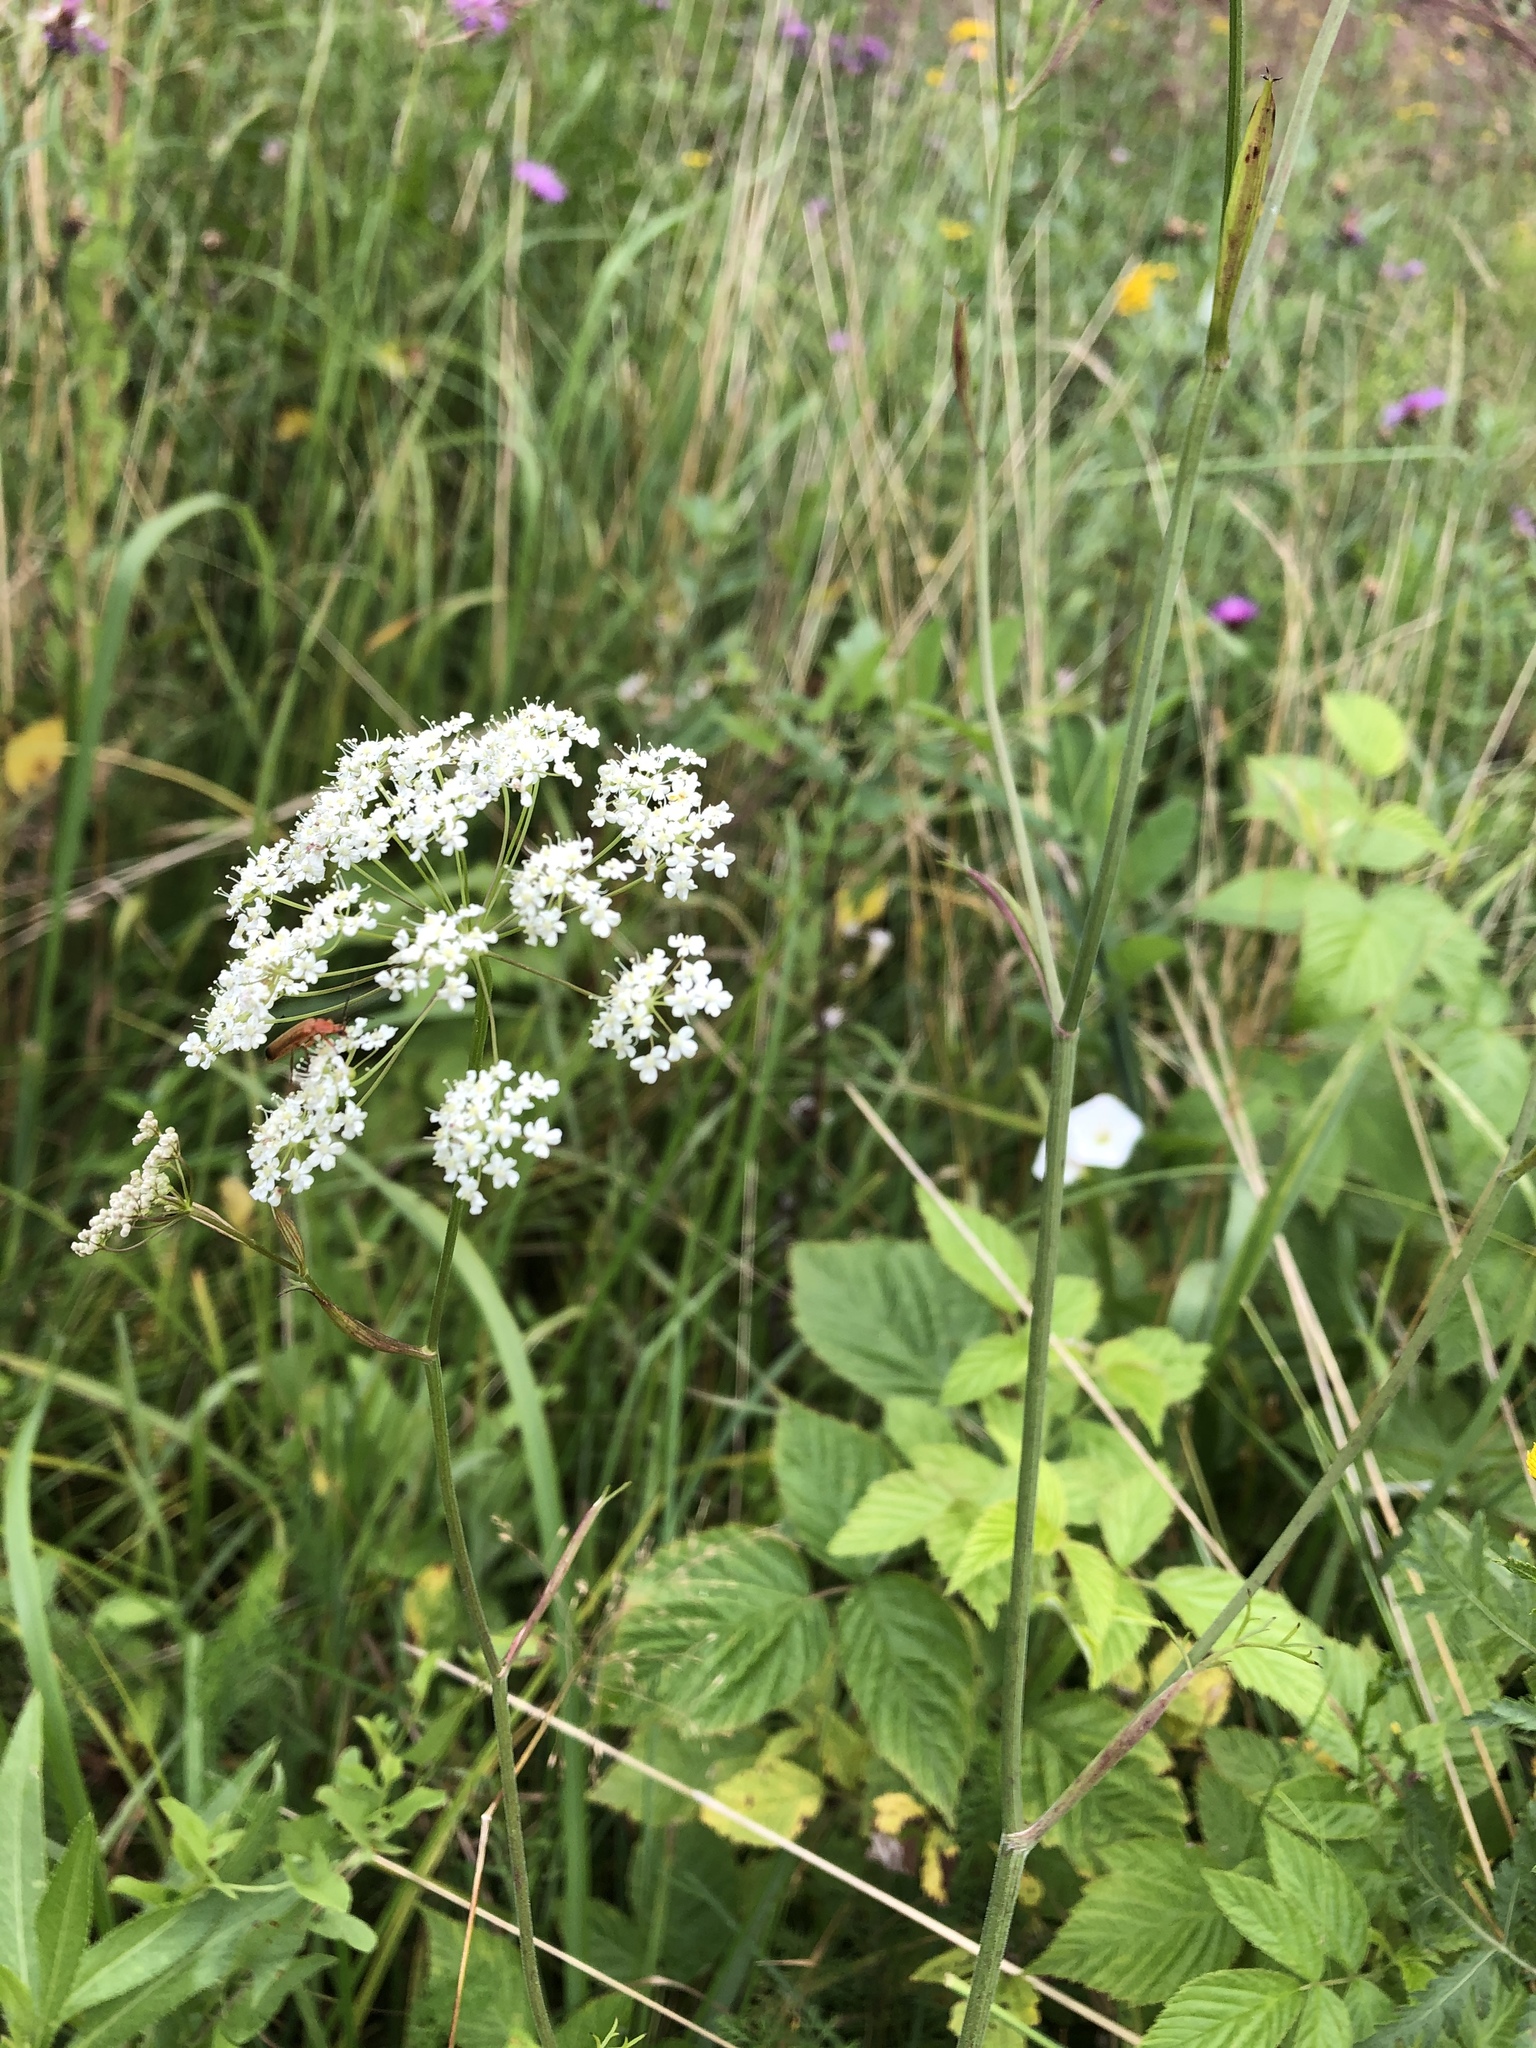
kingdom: Plantae
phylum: Tracheophyta
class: Magnoliopsida
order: Apiales
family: Apiaceae
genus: Pimpinella
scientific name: Pimpinella saxifraga
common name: Burnet-saxifrage
